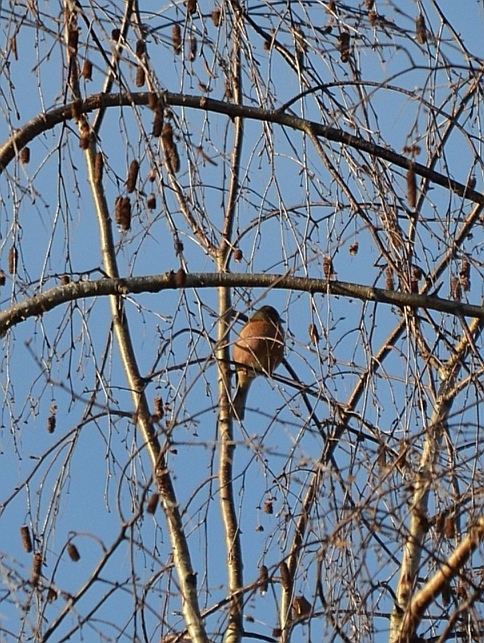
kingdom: Animalia
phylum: Chordata
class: Aves
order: Passeriformes
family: Fringillidae
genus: Fringilla
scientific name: Fringilla coelebs
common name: Common chaffinch
